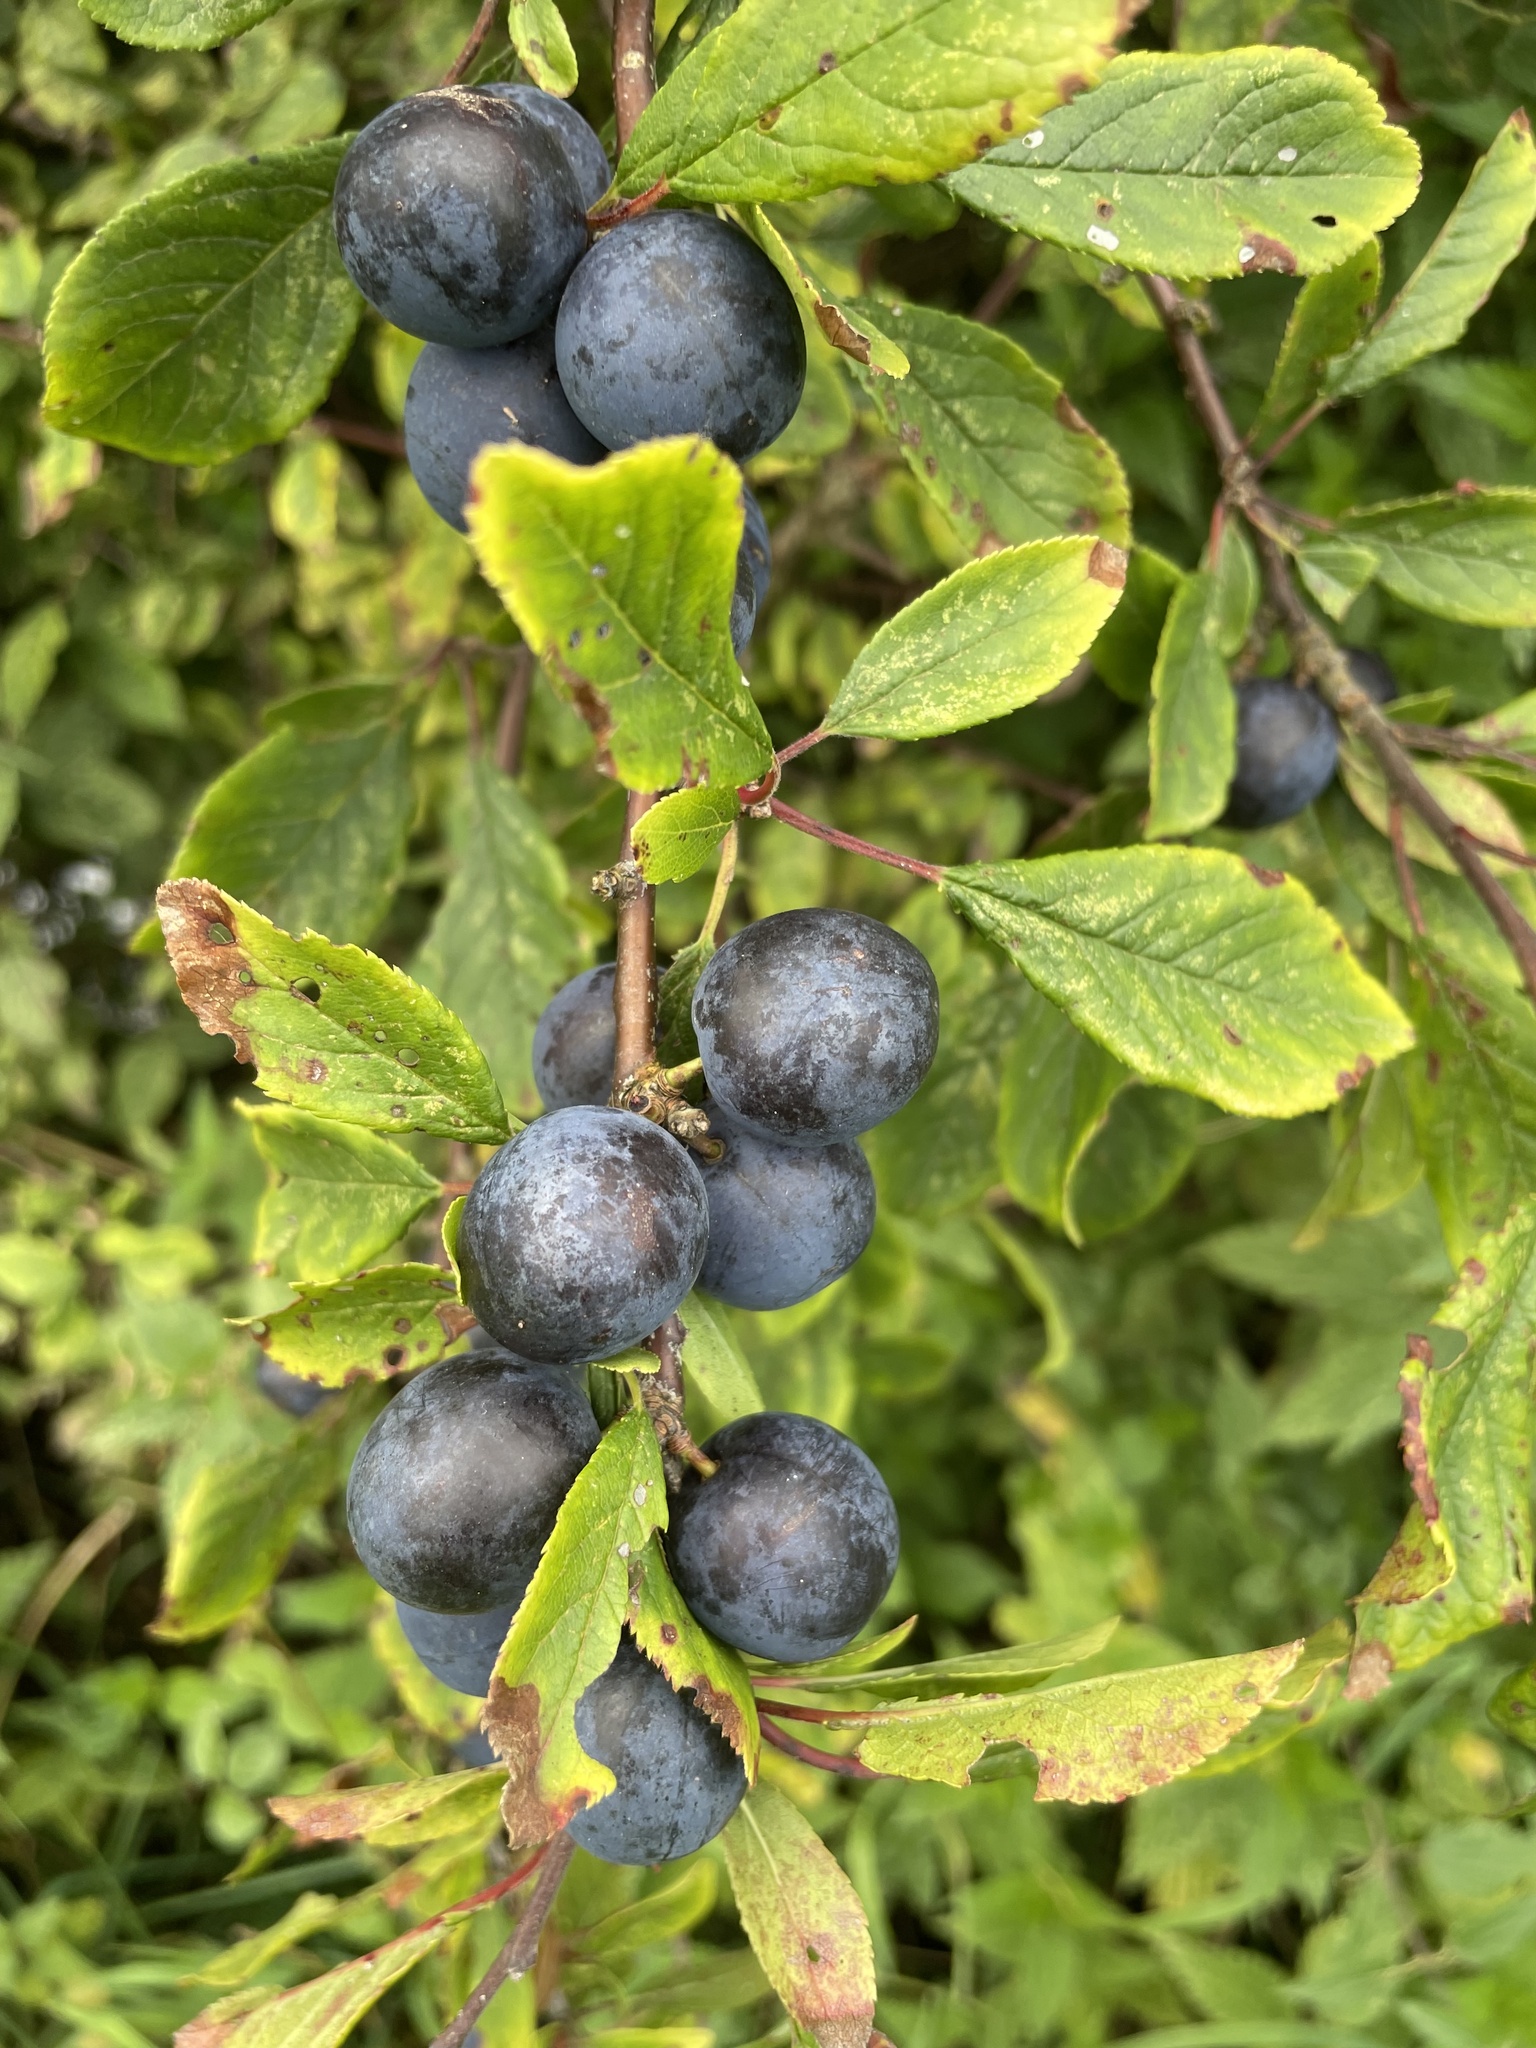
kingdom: Plantae
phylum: Tracheophyta
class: Magnoliopsida
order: Rosales
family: Rosaceae
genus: Prunus
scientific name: Prunus spinosa
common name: Blackthorn
